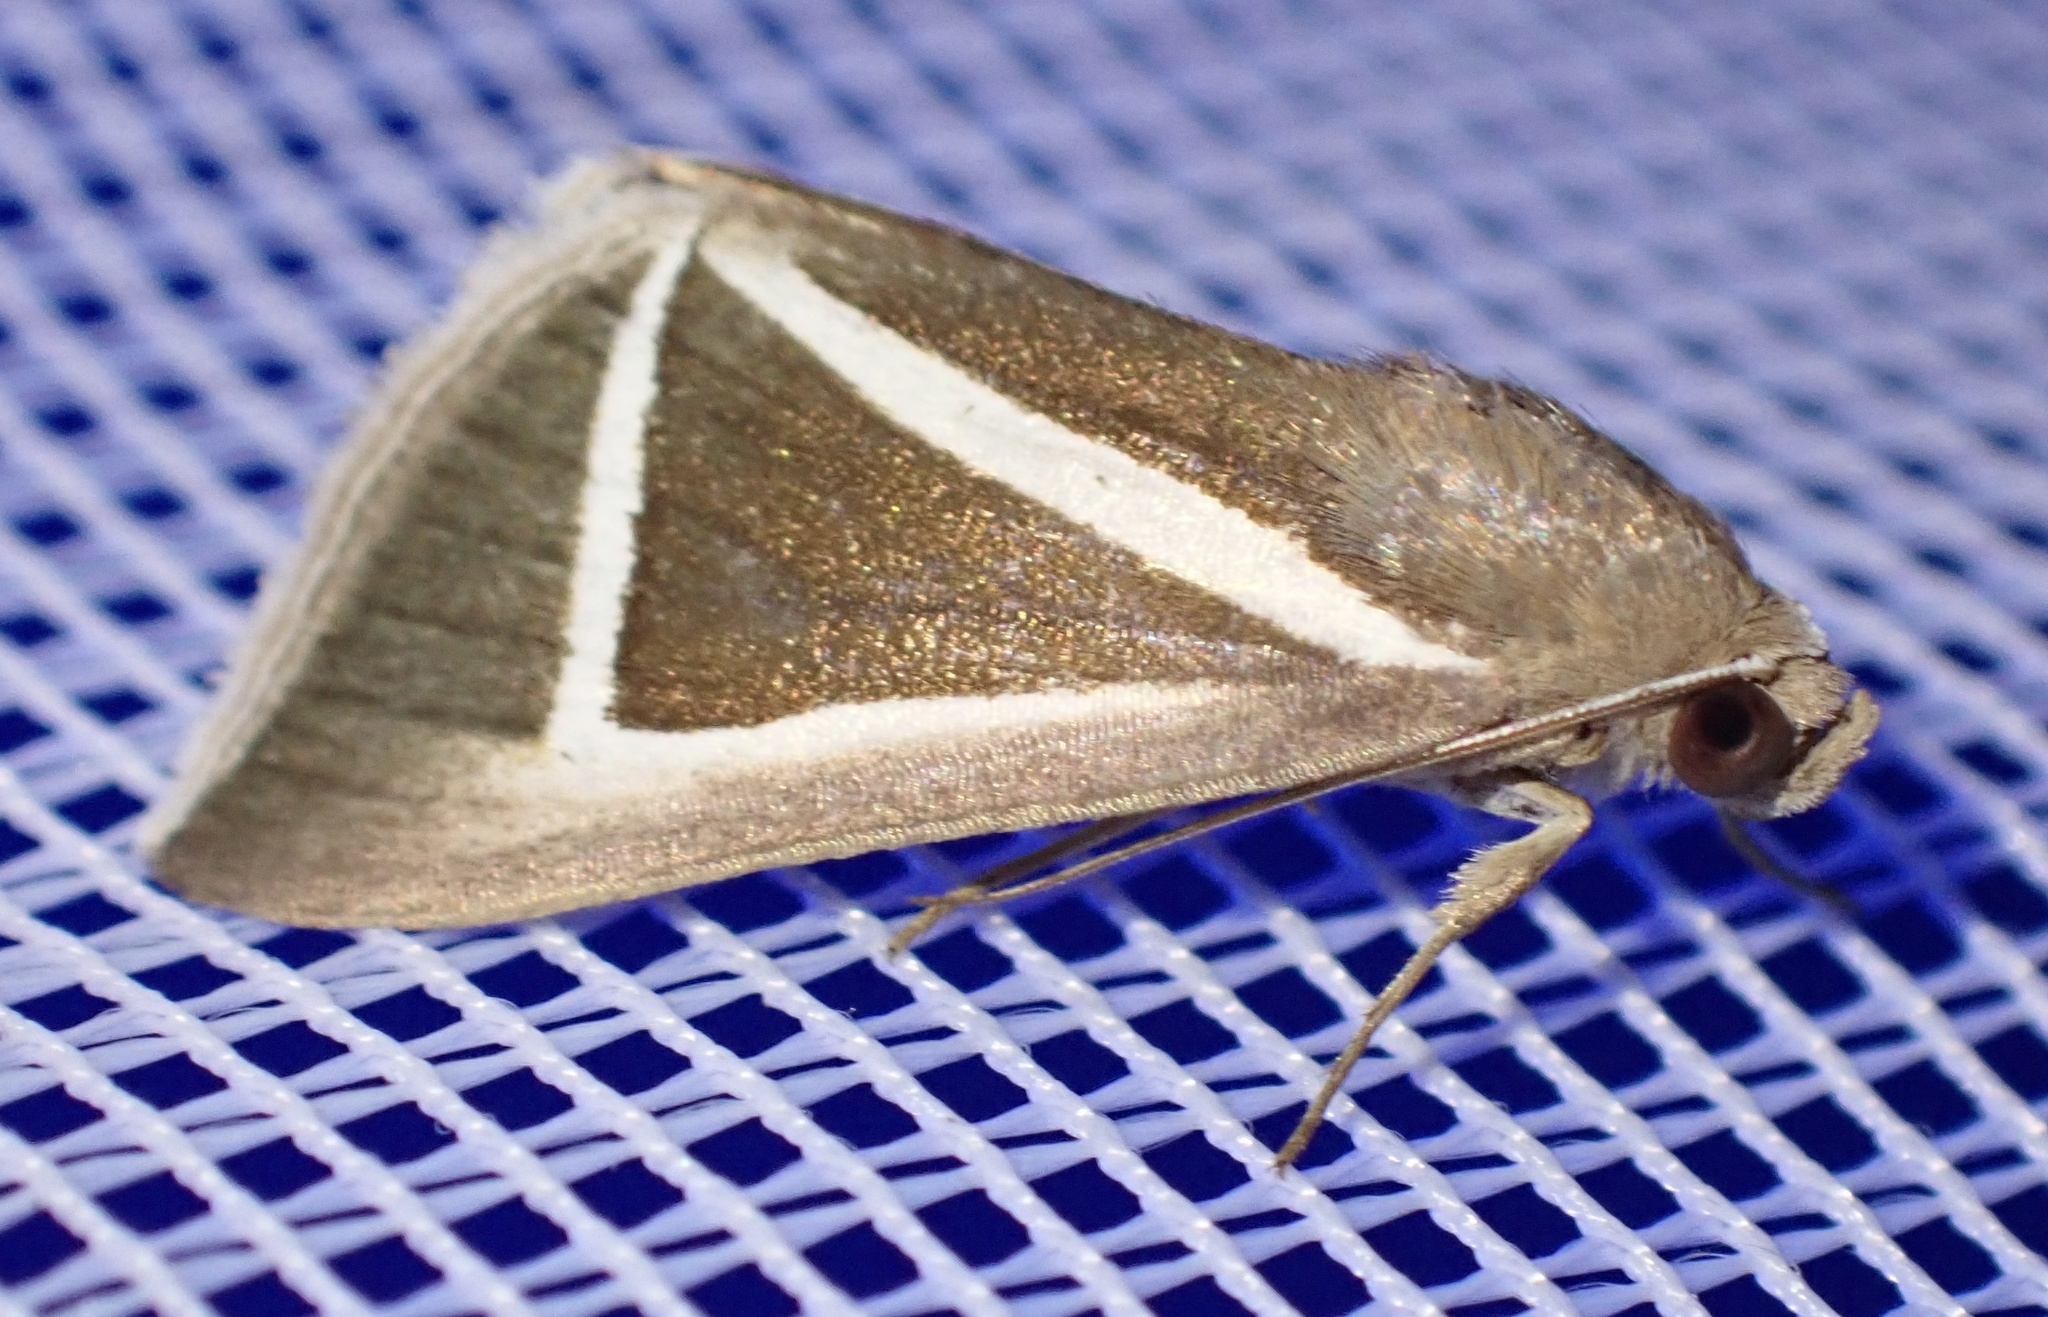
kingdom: Animalia
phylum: Arthropoda
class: Insecta
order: Lepidoptera
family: Erebidae
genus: Chalciope
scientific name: Chalciope delta
